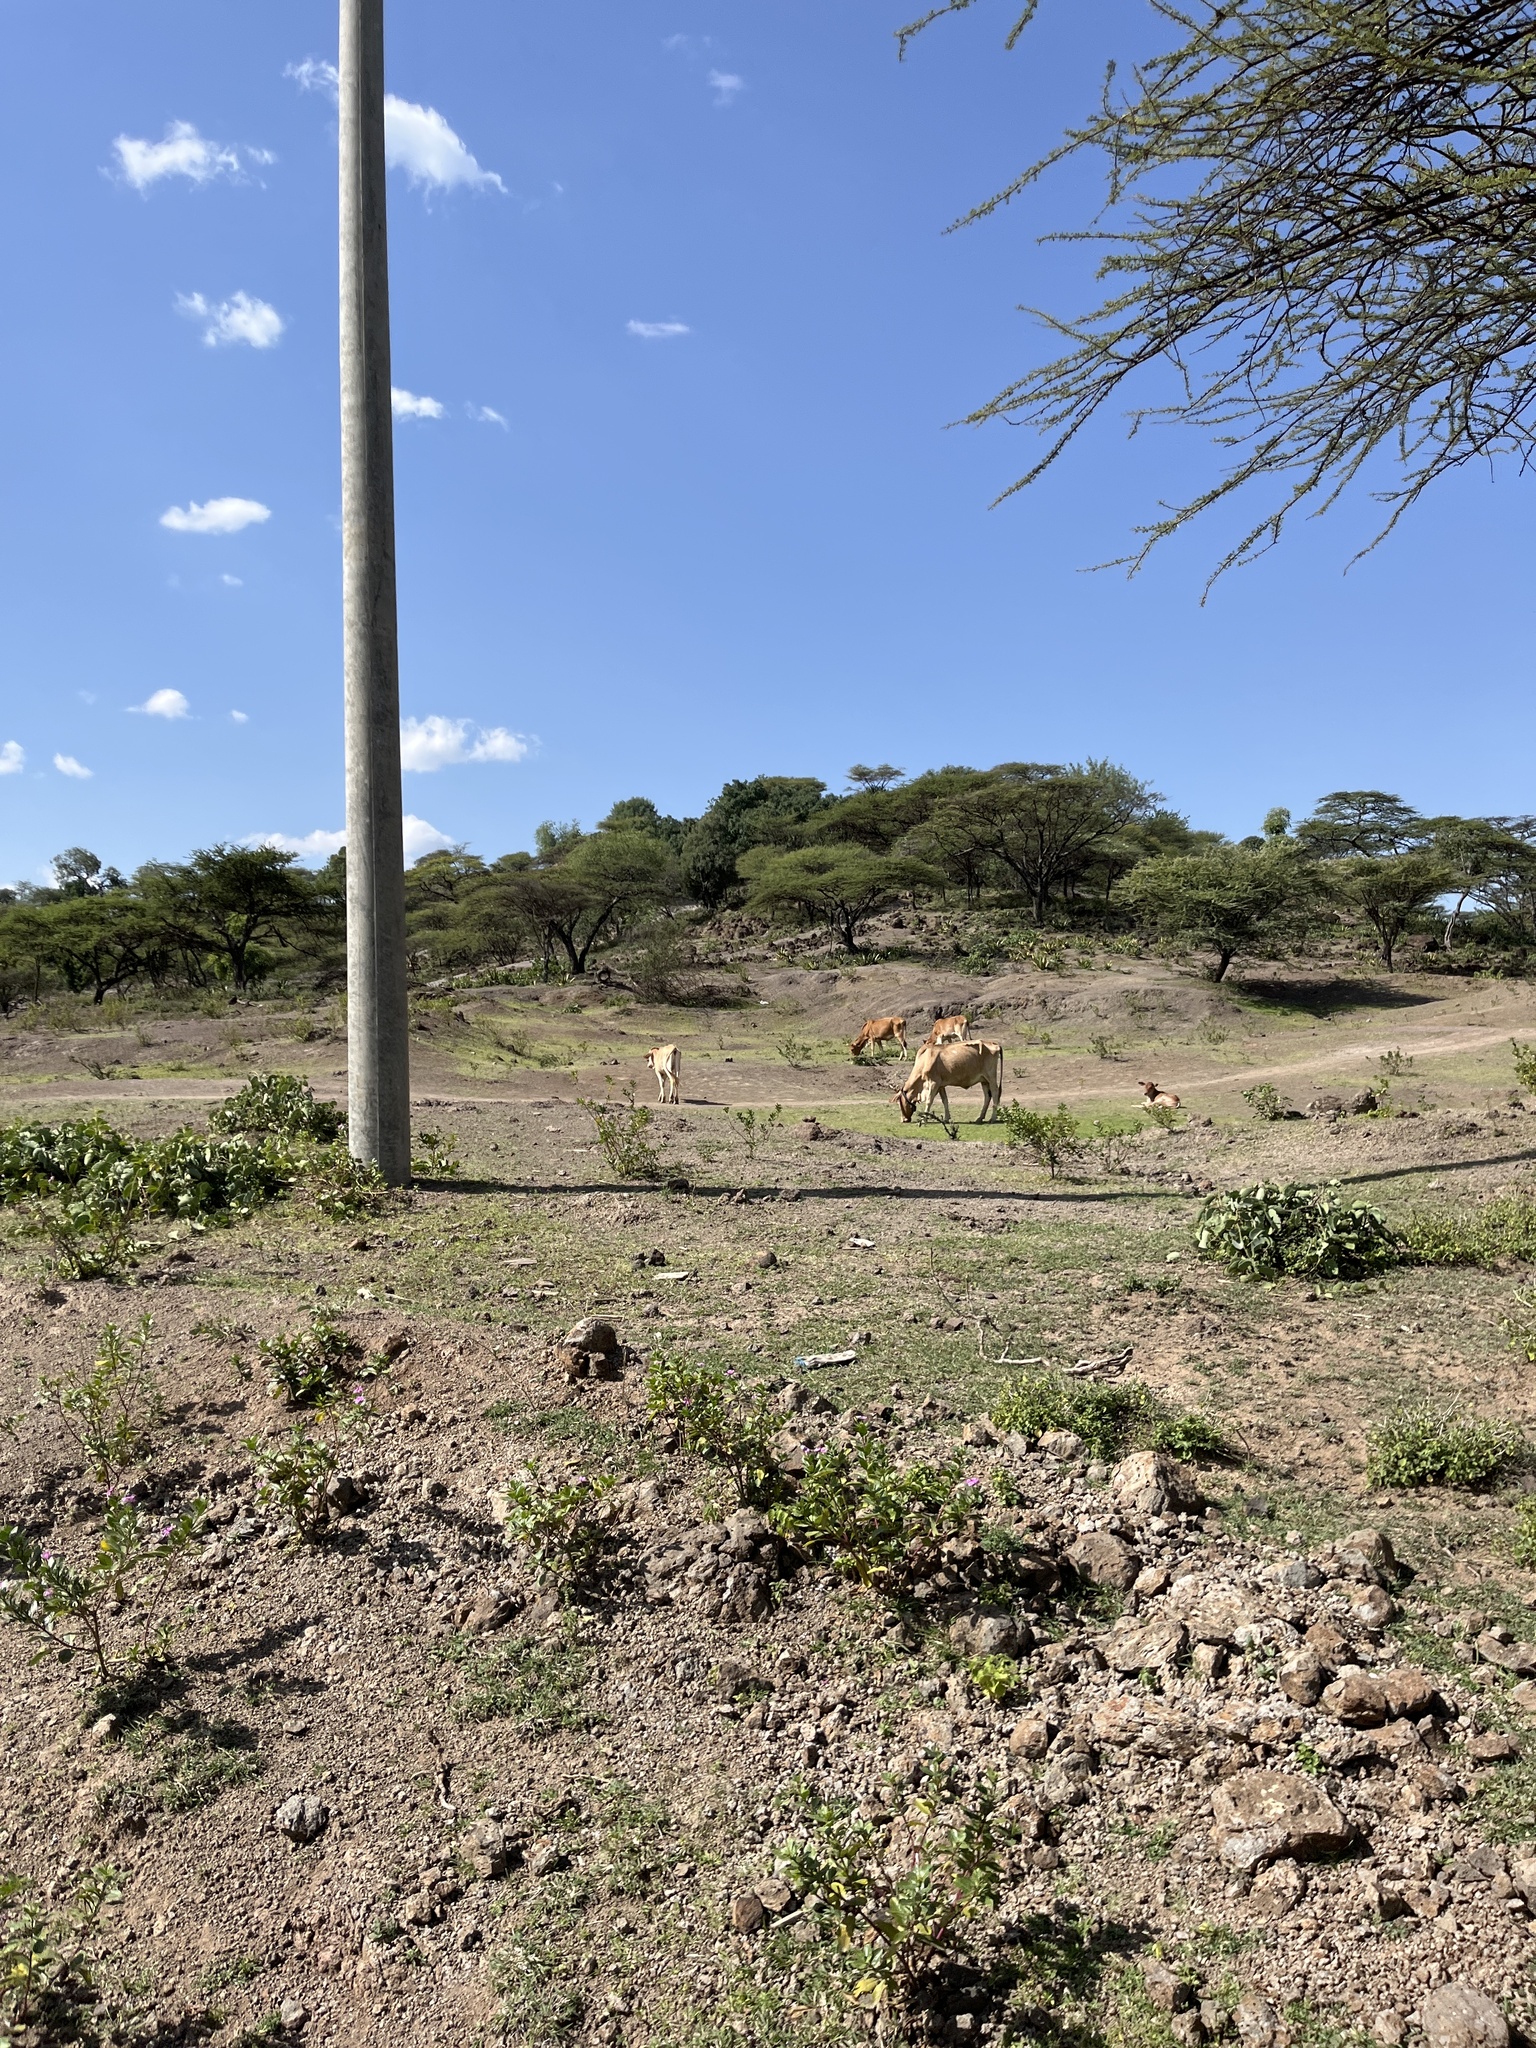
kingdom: Animalia
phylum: Chordata
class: Mammalia
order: Artiodactyla
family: Bovidae
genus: Bos
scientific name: Bos taurus
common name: Domesticated cattle
